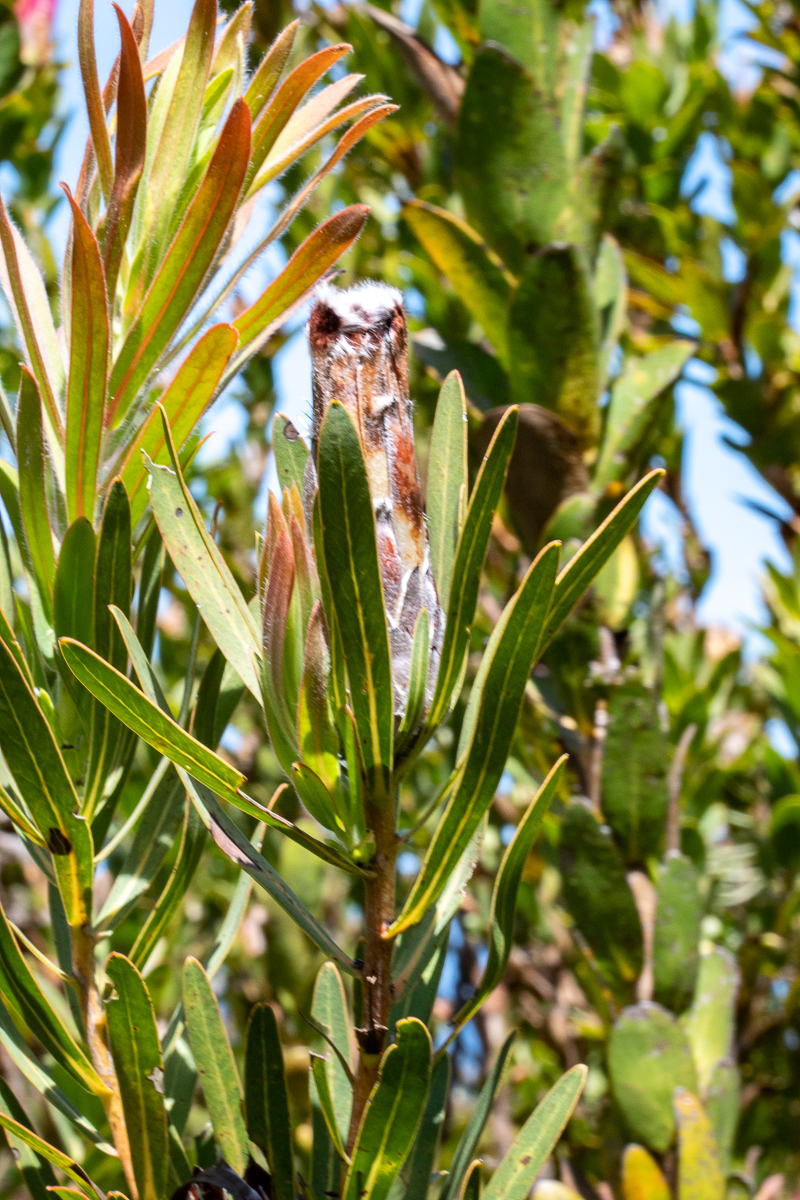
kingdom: Plantae
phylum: Tracheophyta
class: Magnoliopsida
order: Proteales
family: Proteaceae
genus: Protea
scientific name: Protea lepidocarpodendron
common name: Black-bearded protea
